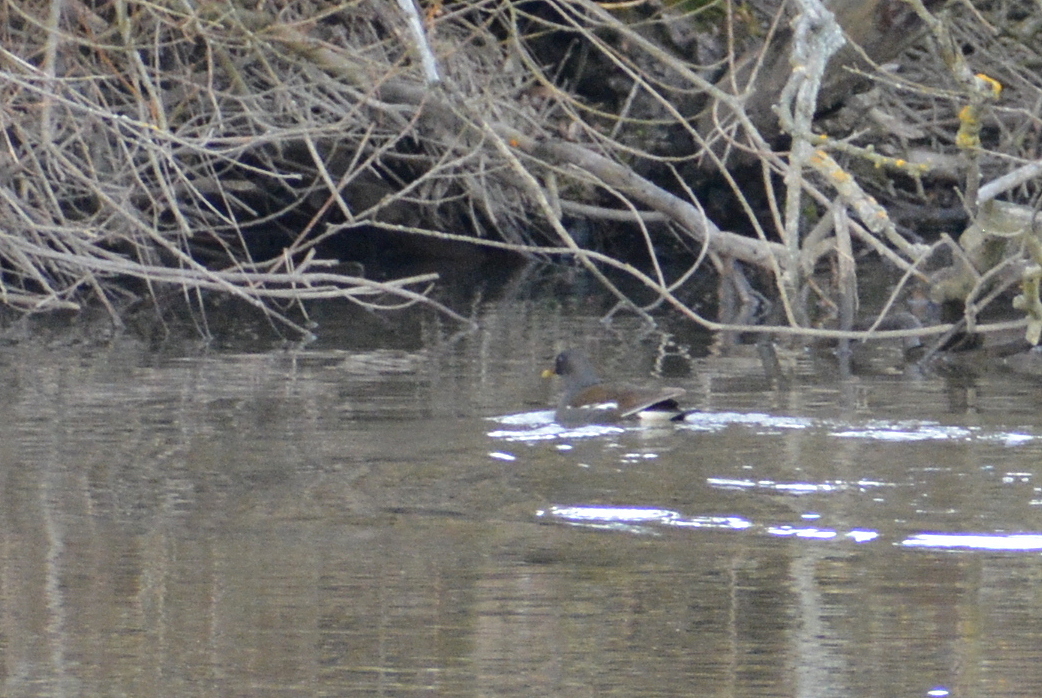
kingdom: Animalia
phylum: Chordata
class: Aves
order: Gruiformes
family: Rallidae
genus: Gallinula
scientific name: Gallinula chloropus
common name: Common moorhen
